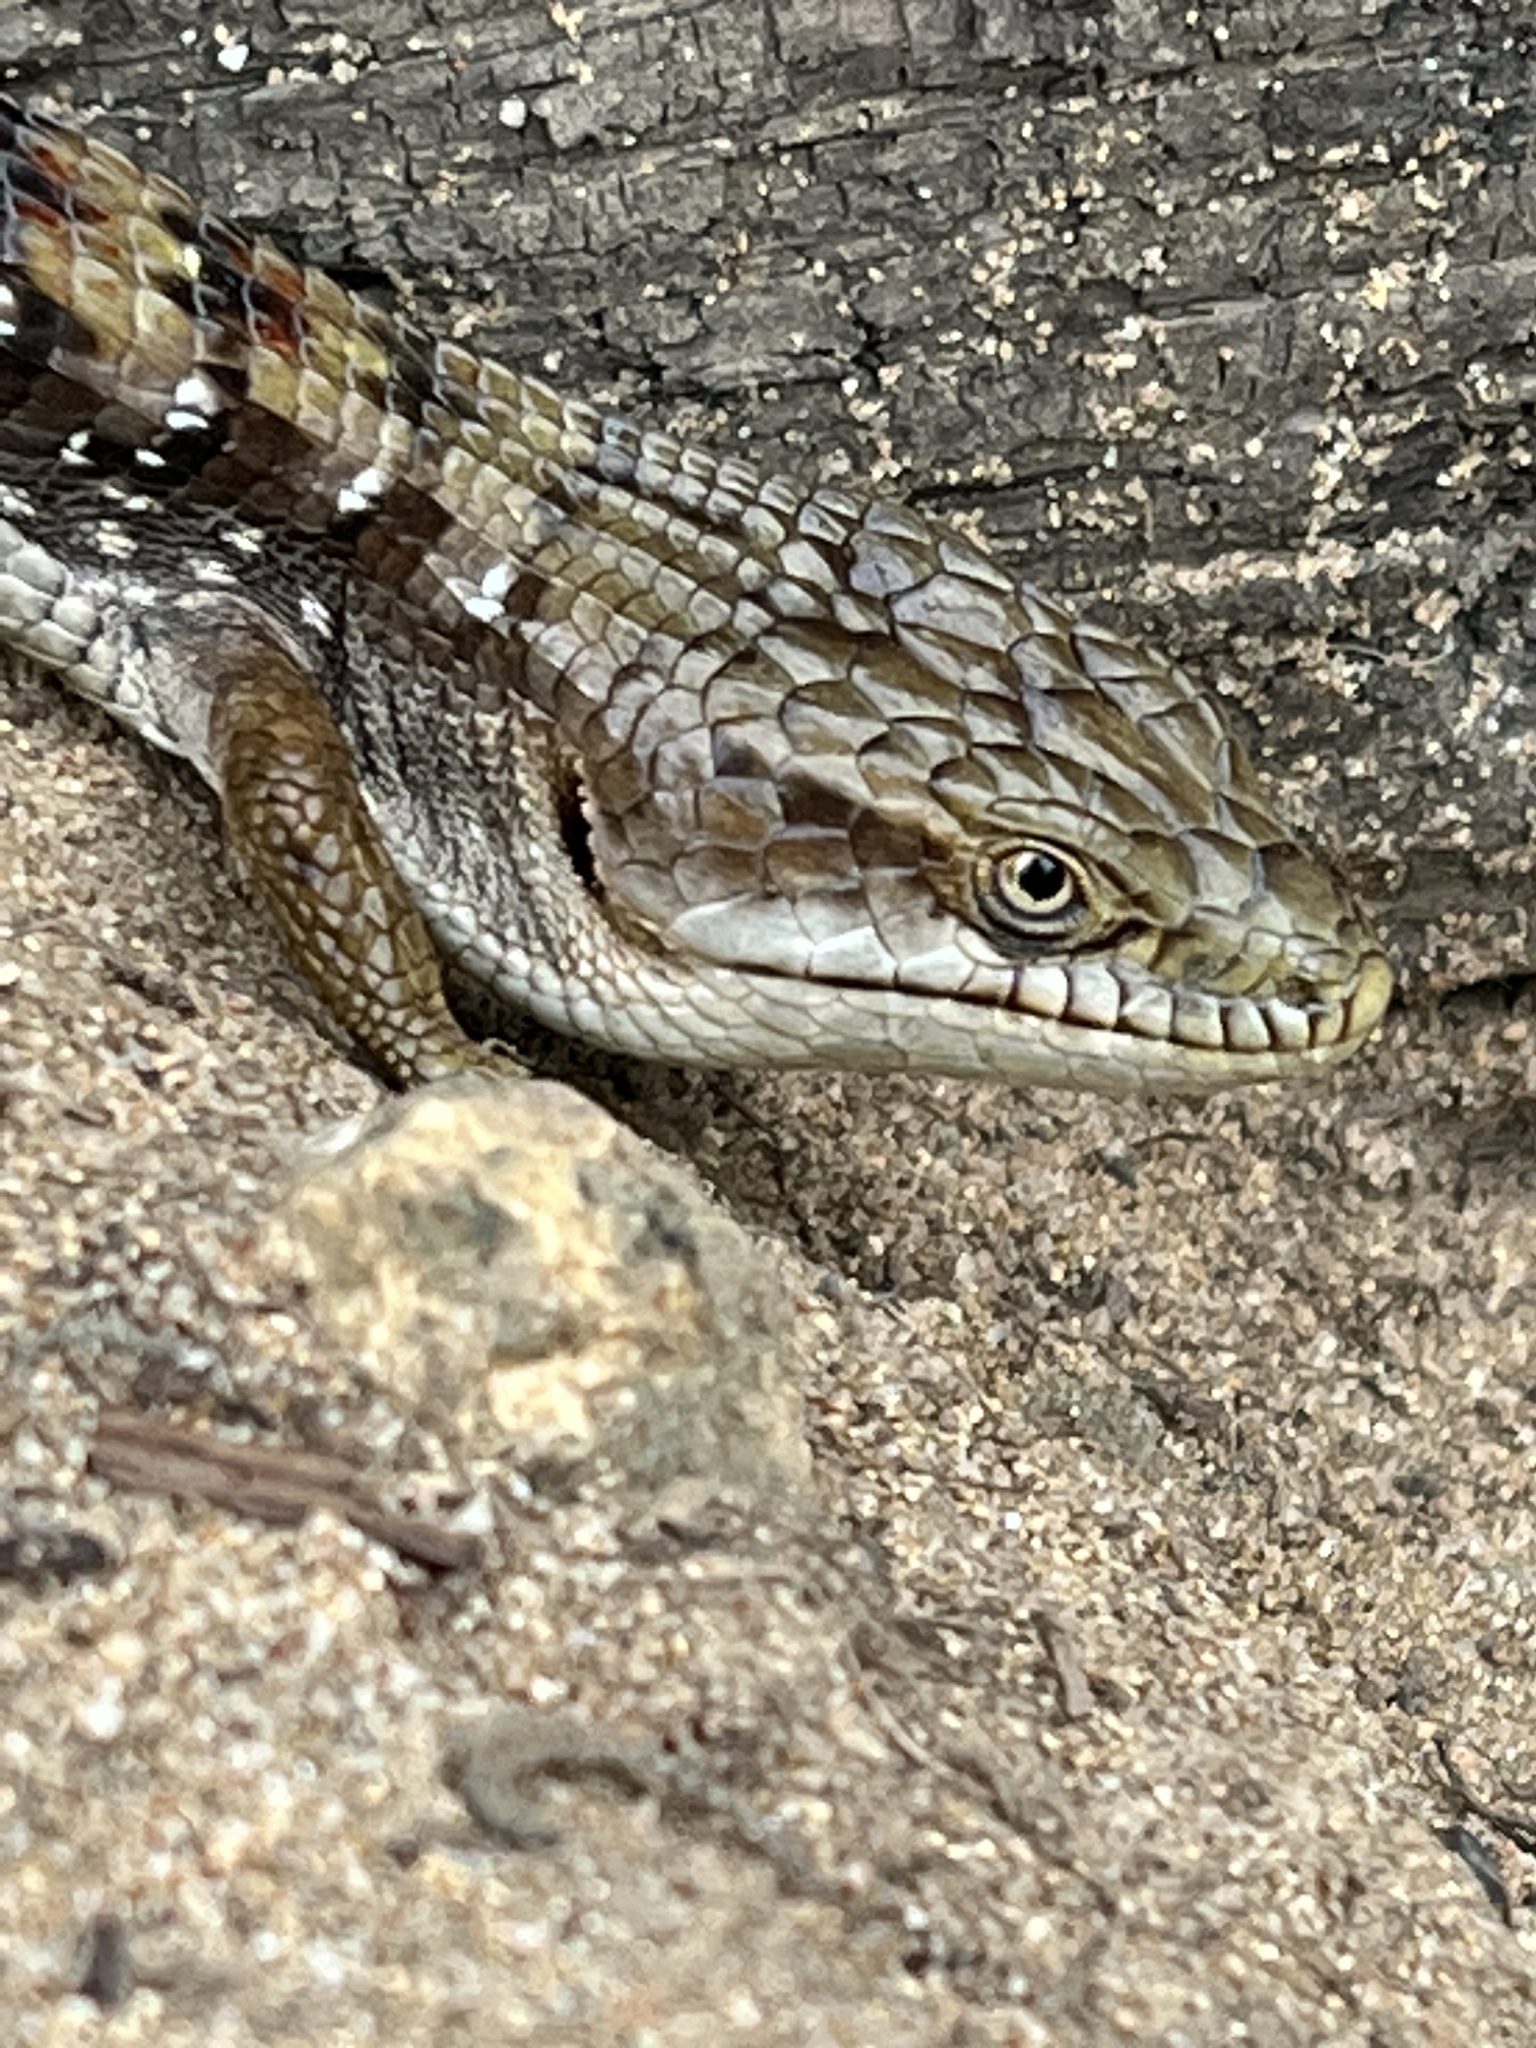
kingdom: Animalia
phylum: Chordata
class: Squamata
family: Anguidae
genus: Elgaria
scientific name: Elgaria multicarinata
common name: Southern alligator lizard
